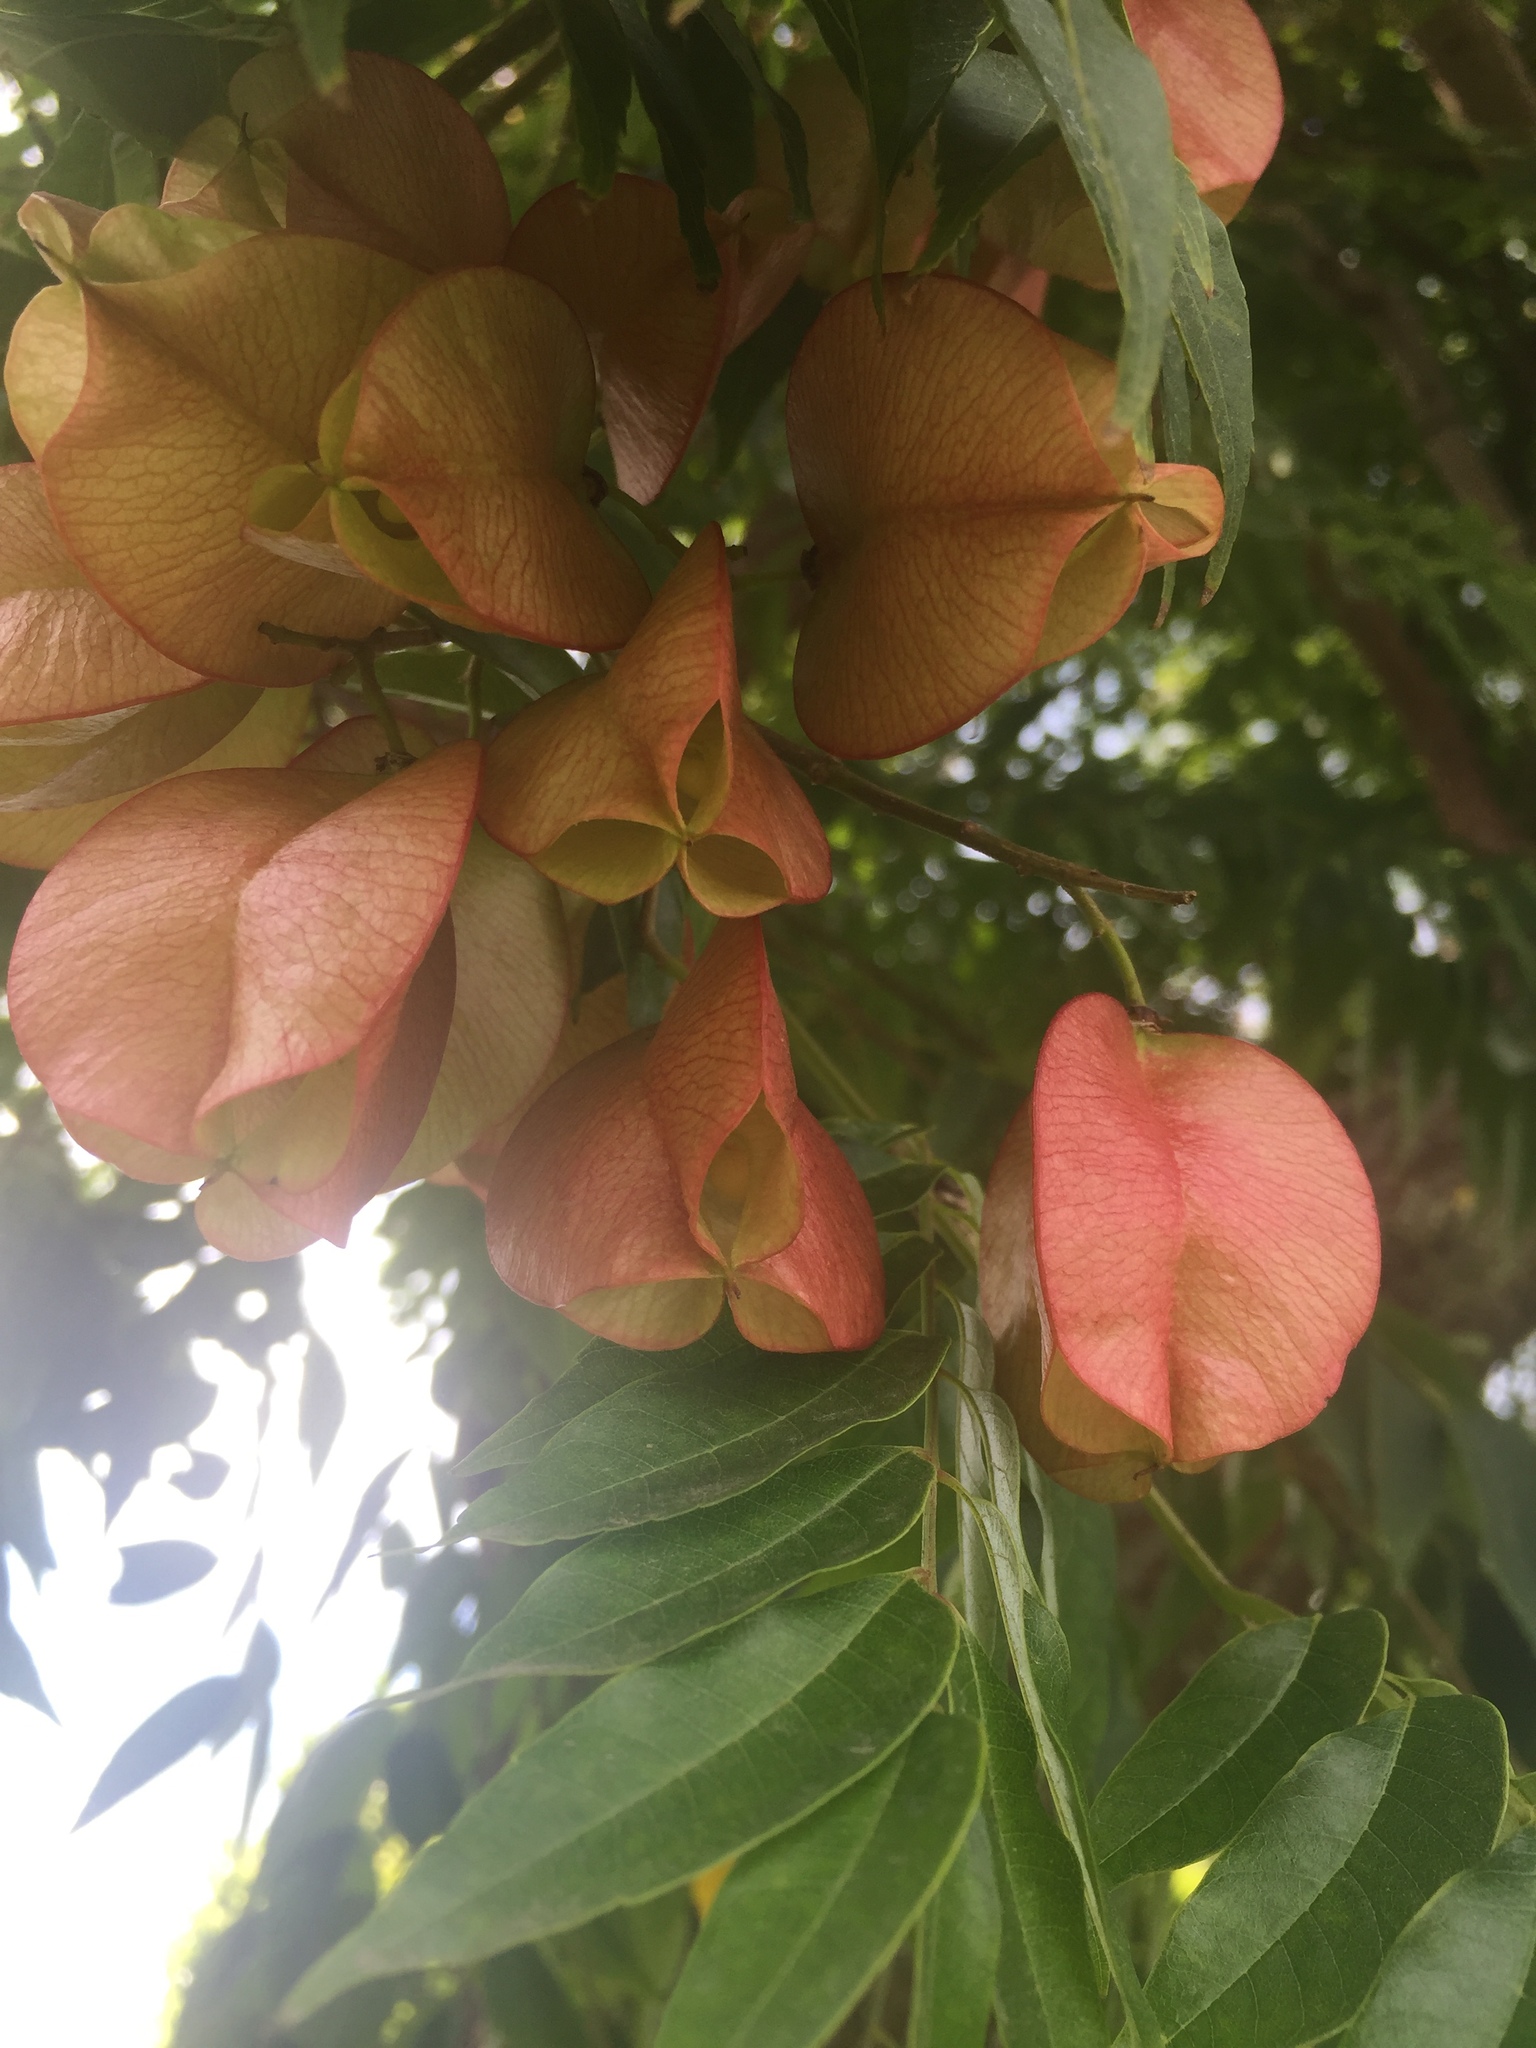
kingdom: Plantae
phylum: Tracheophyta
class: Magnoliopsida
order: Sapindales
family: Sapindaceae
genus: Koelreuteria
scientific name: Koelreuteria elegans
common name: Chinese flame tree
